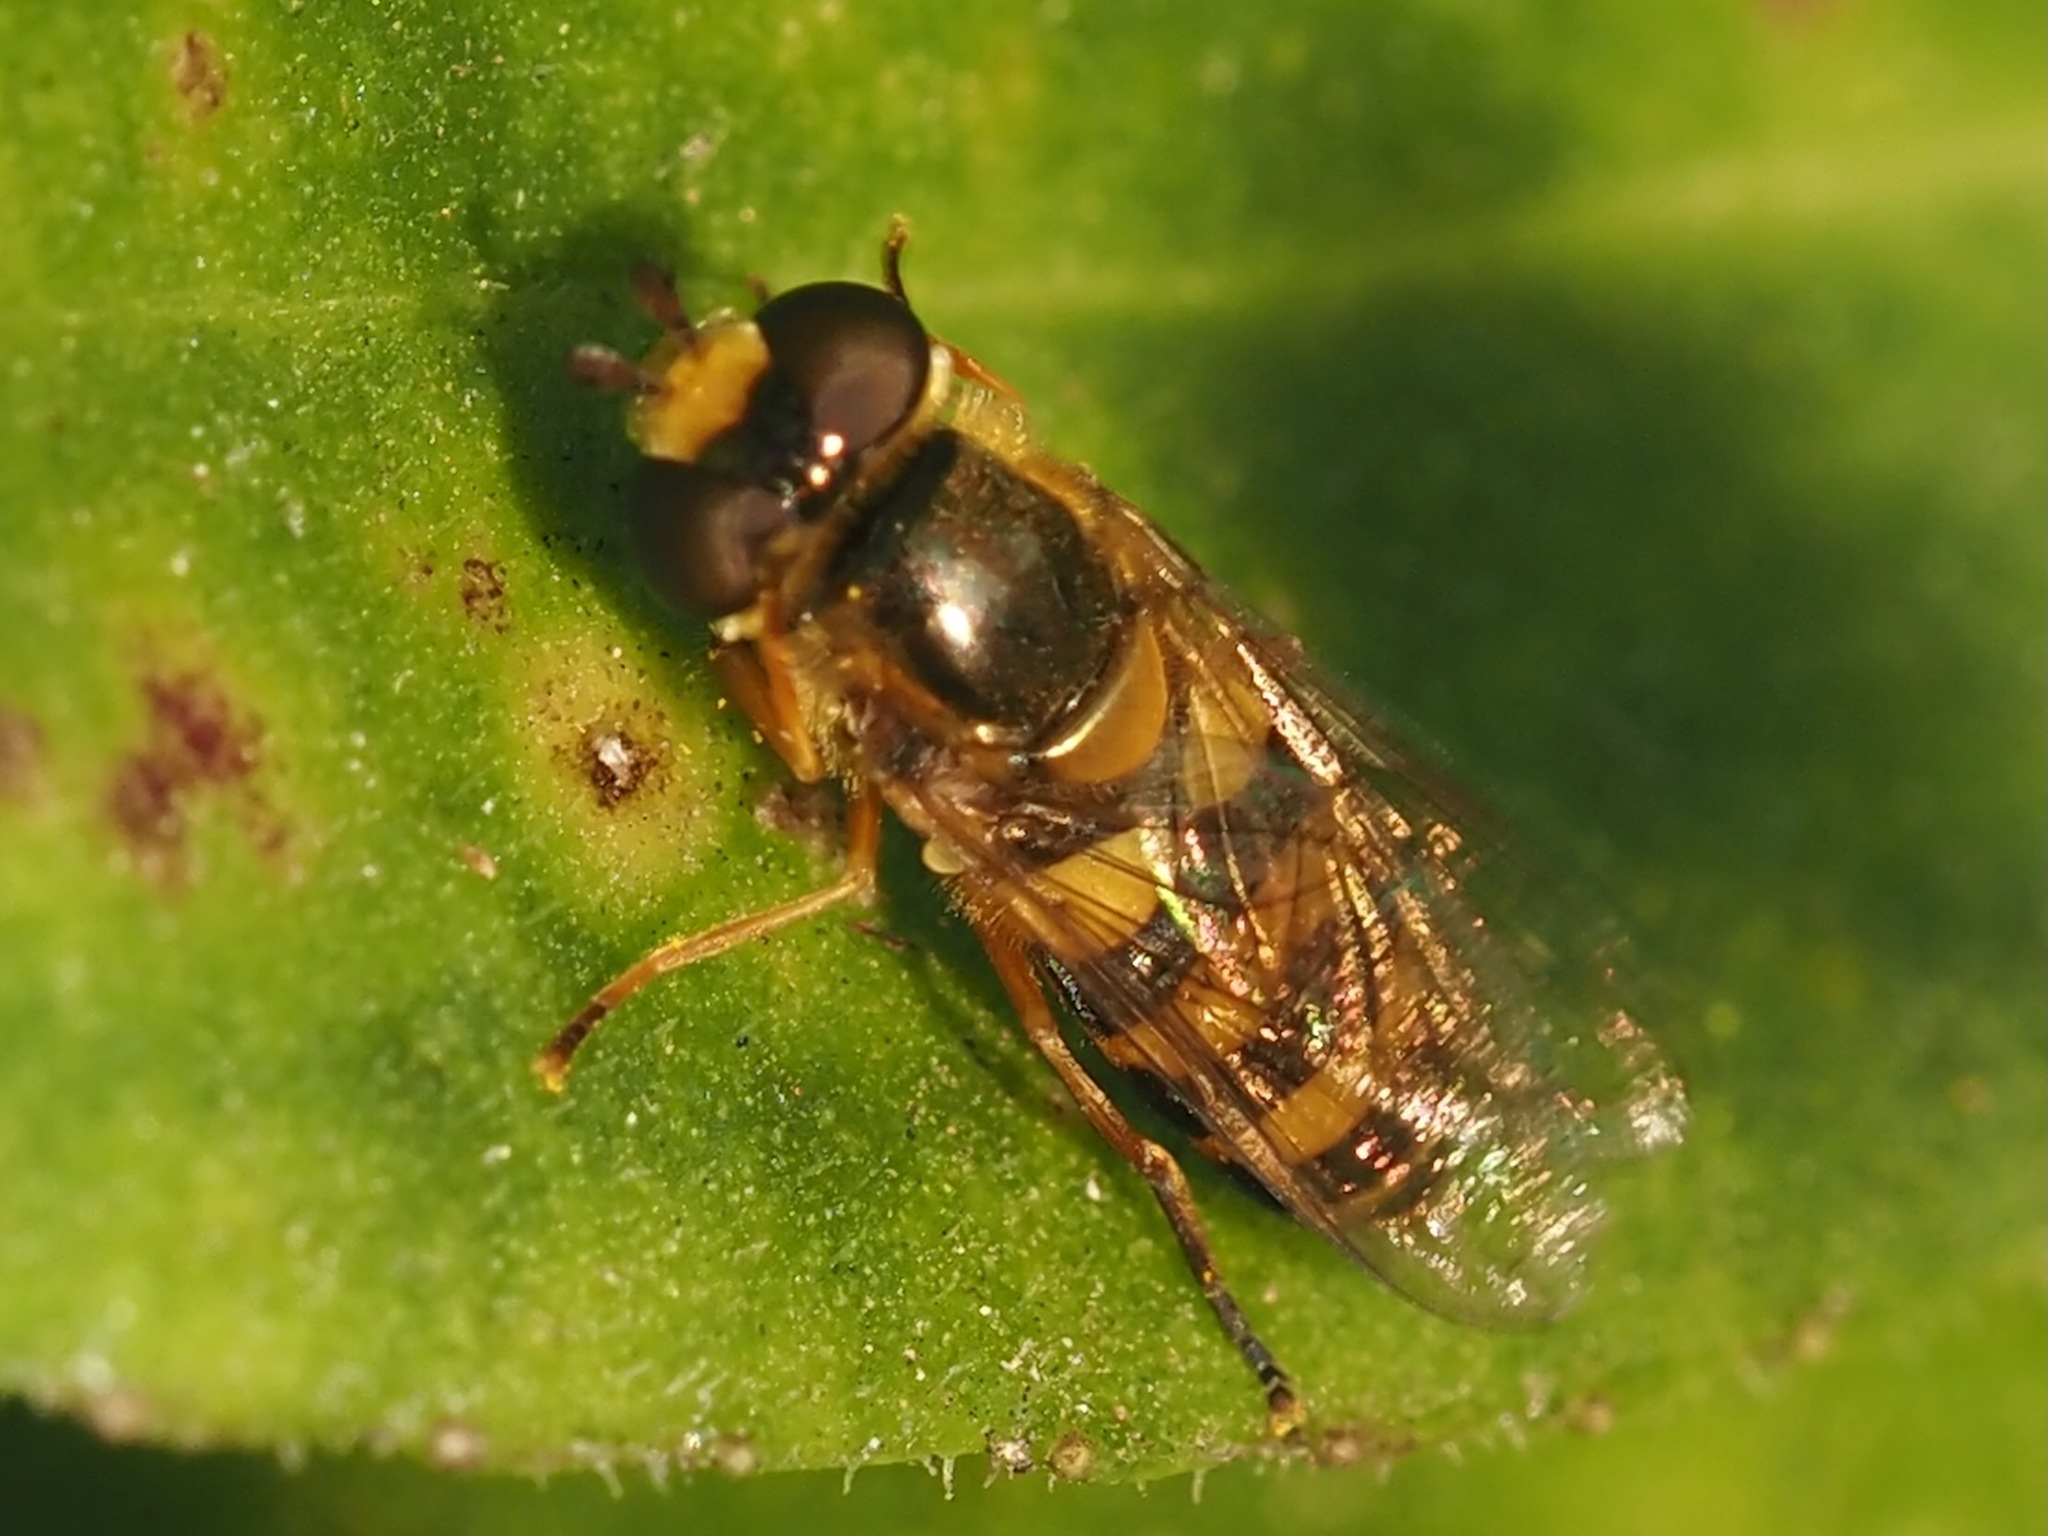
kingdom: Animalia
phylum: Arthropoda
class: Insecta
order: Diptera
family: Syrphidae
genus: Eupeodes
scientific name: Eupeodes latifasciatus
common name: Variable aphideater
